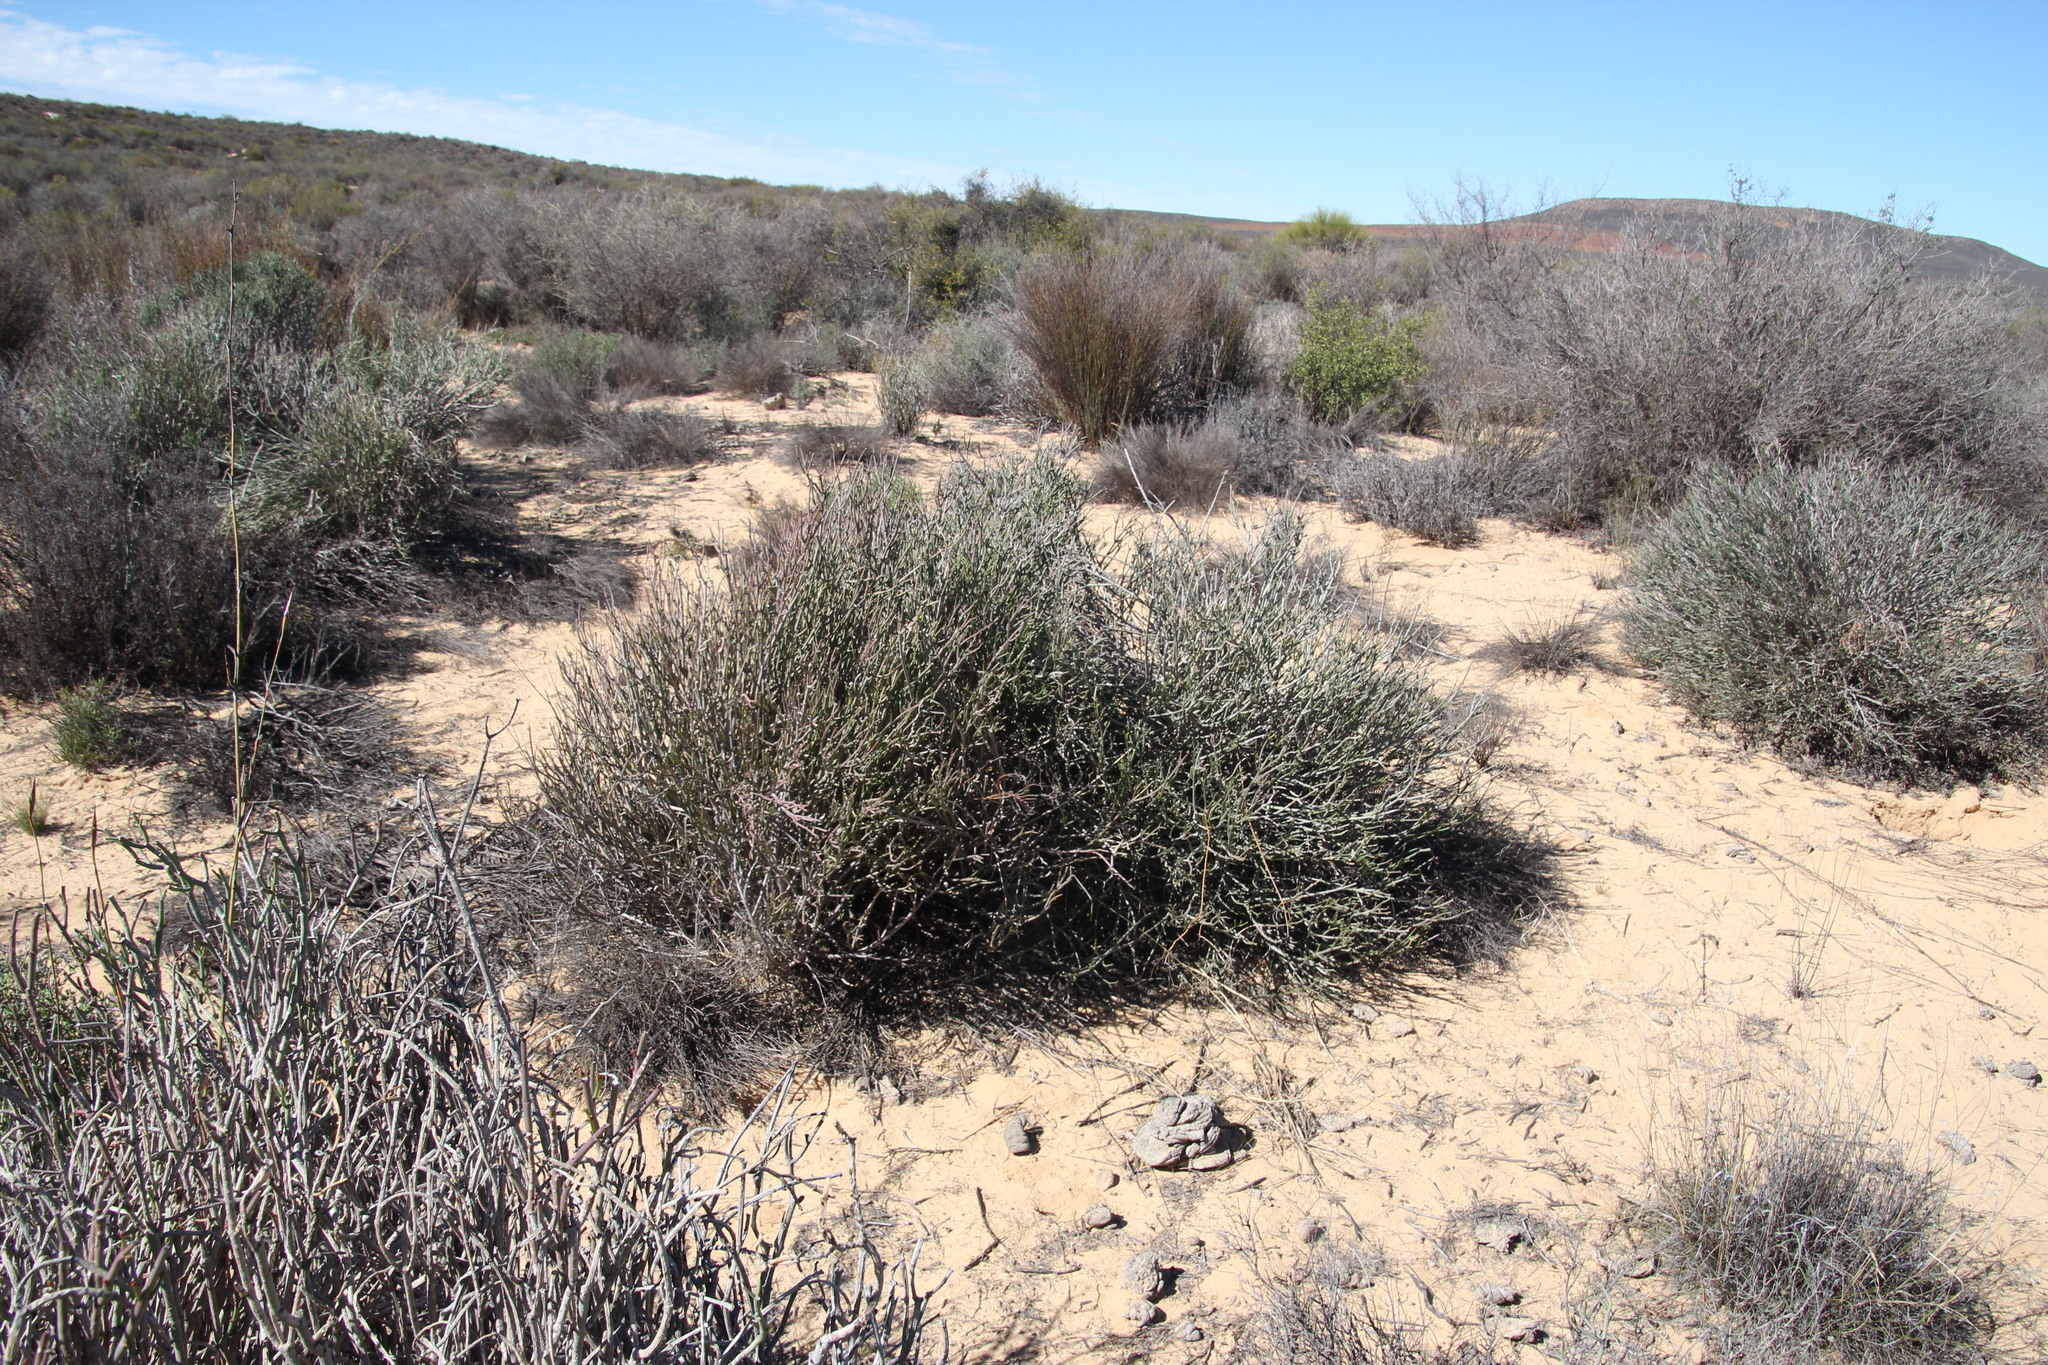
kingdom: Plantae
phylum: Tracheophyta
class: Magnoliopsida
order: Malpighiales
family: Euphorbiaceae
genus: Euphorbia
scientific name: Euphorbia burmanni
